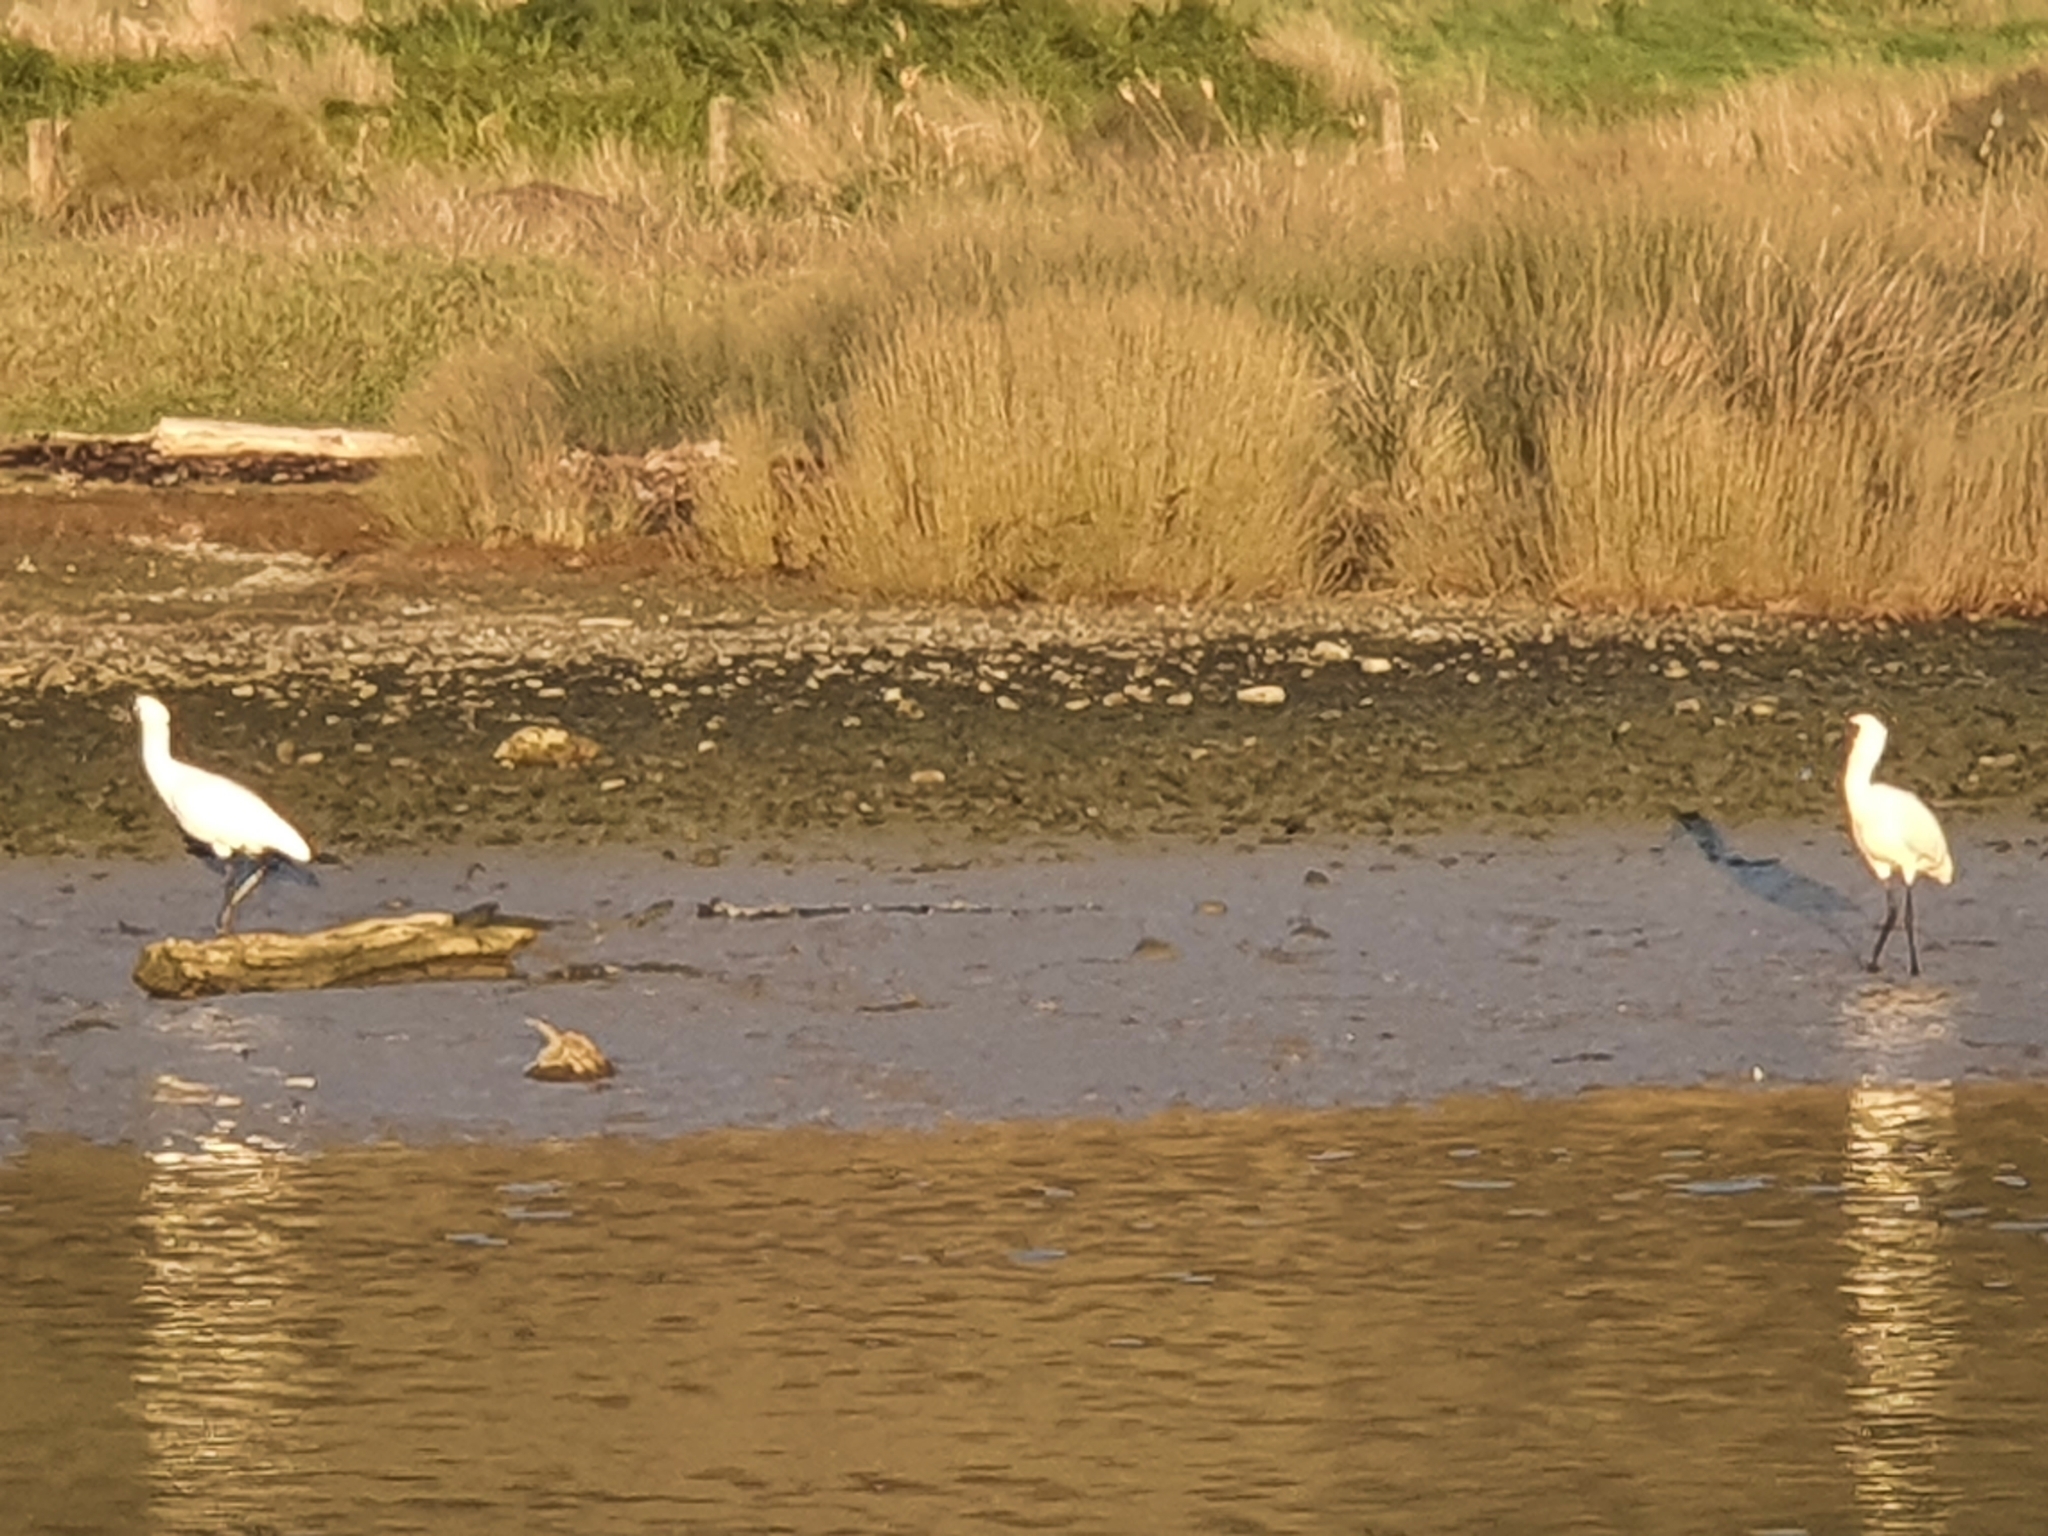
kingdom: Animalia
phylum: Chordata
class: Aves
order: Pelecaniformes
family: Threskiornithidae
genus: Platalea
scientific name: Platalea regia
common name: Royal spoonbill
